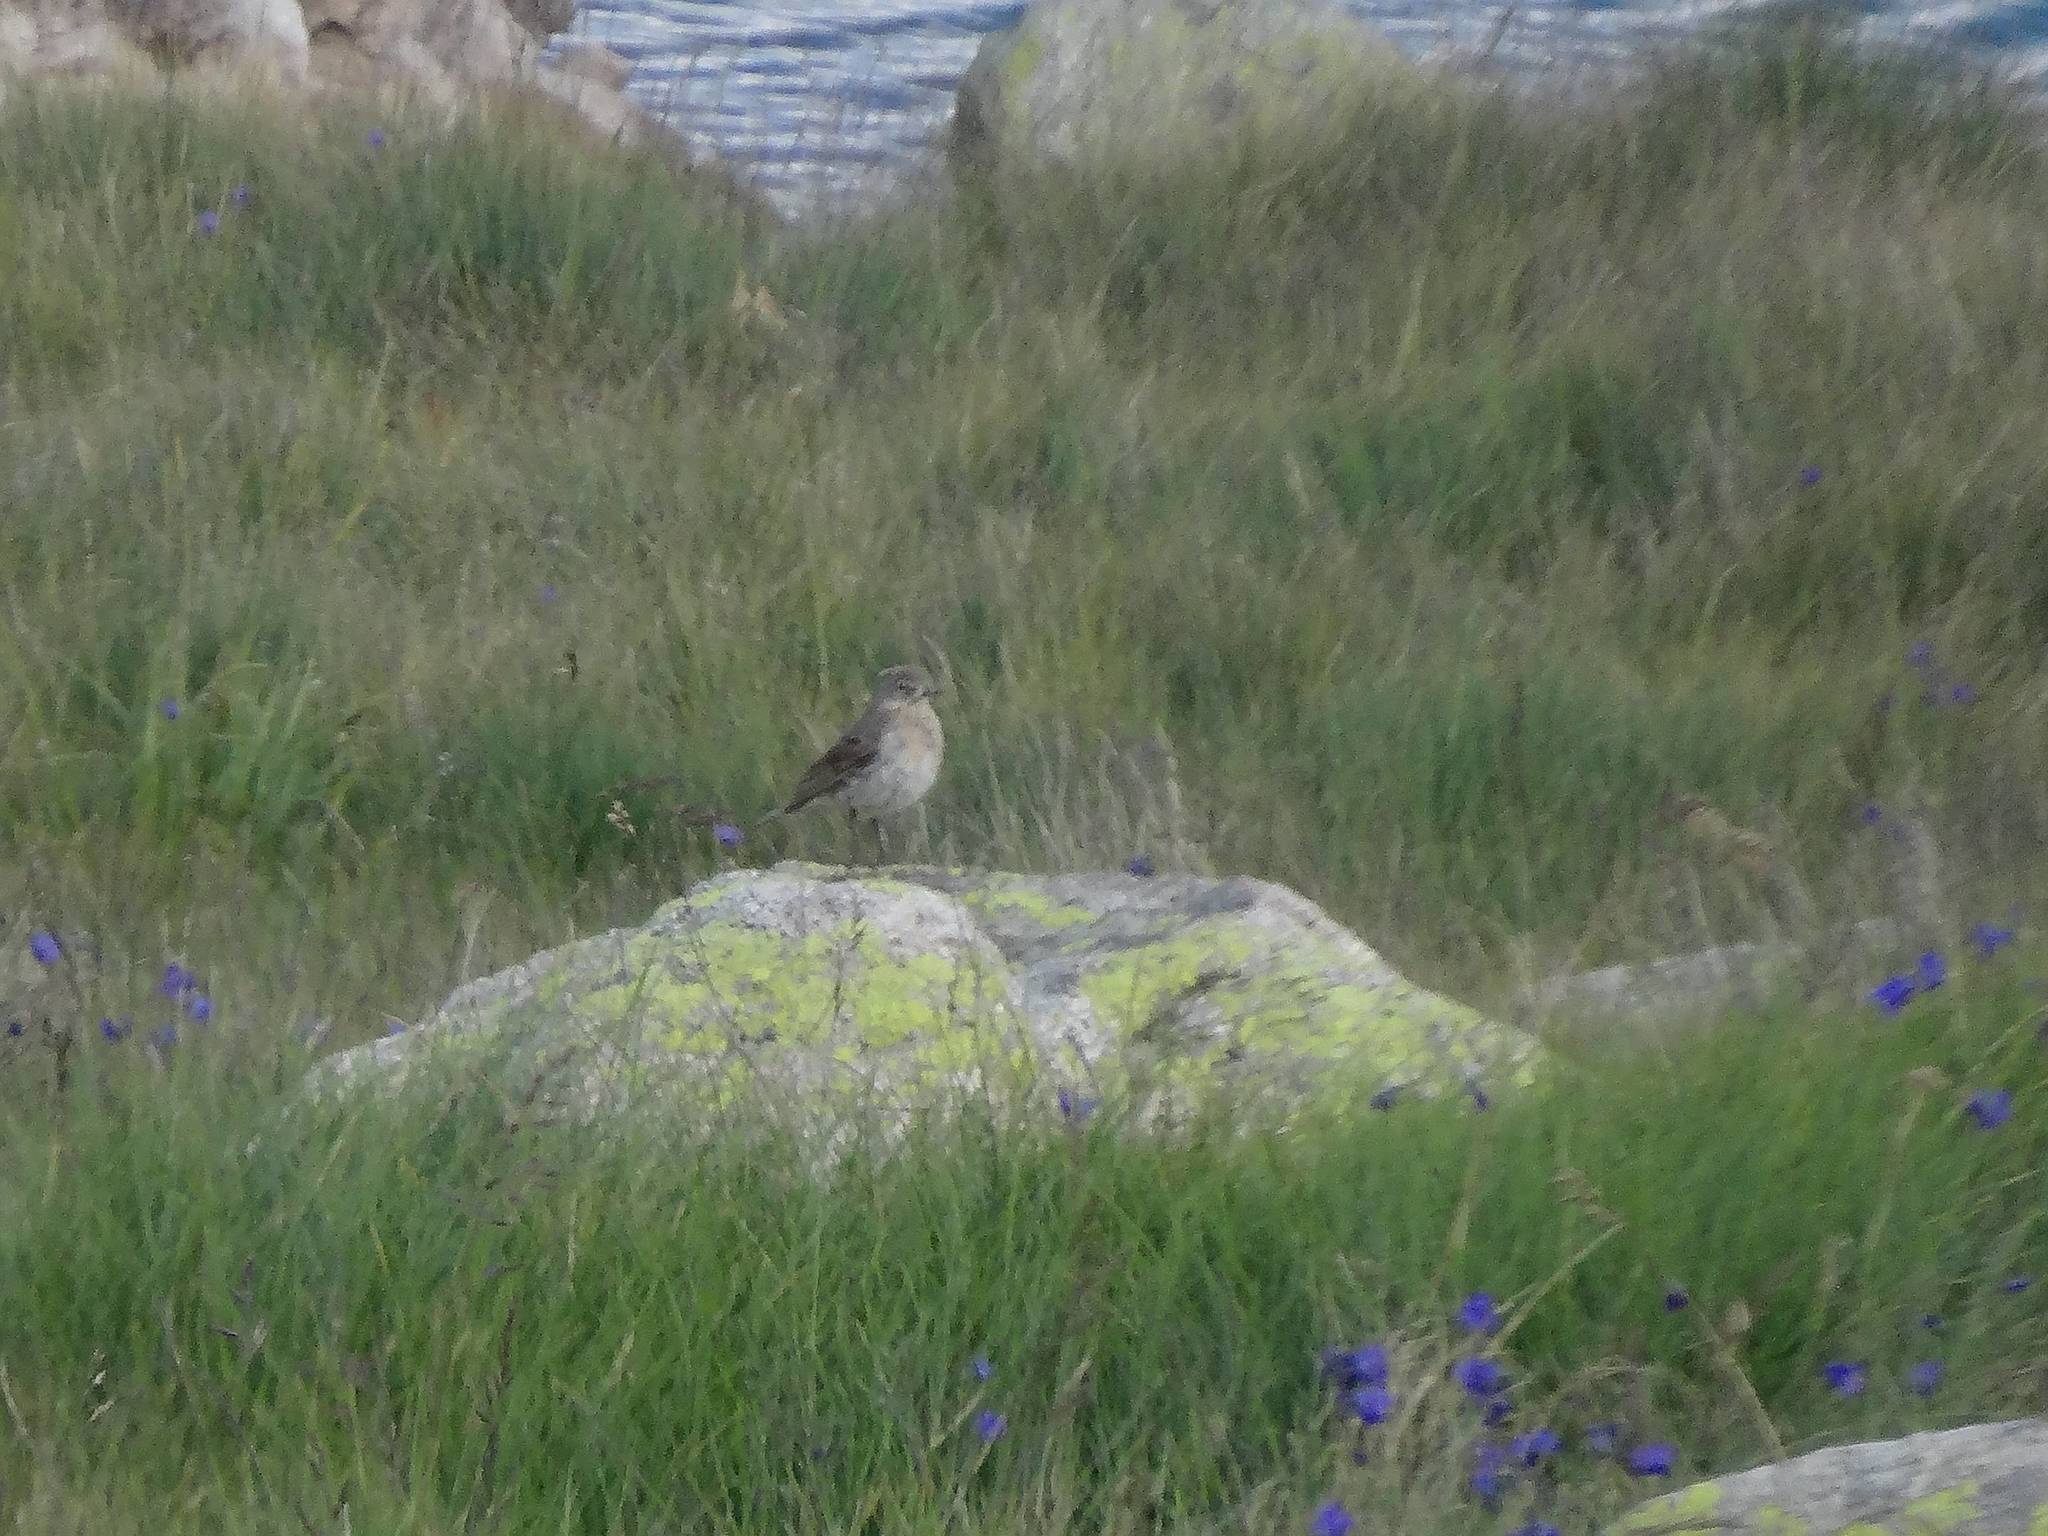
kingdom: Animalia
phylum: Chordata
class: Aves
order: Passeriformes
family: Motacillidae
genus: Anthus
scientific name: Anthus spinoletta
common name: Water pipit
